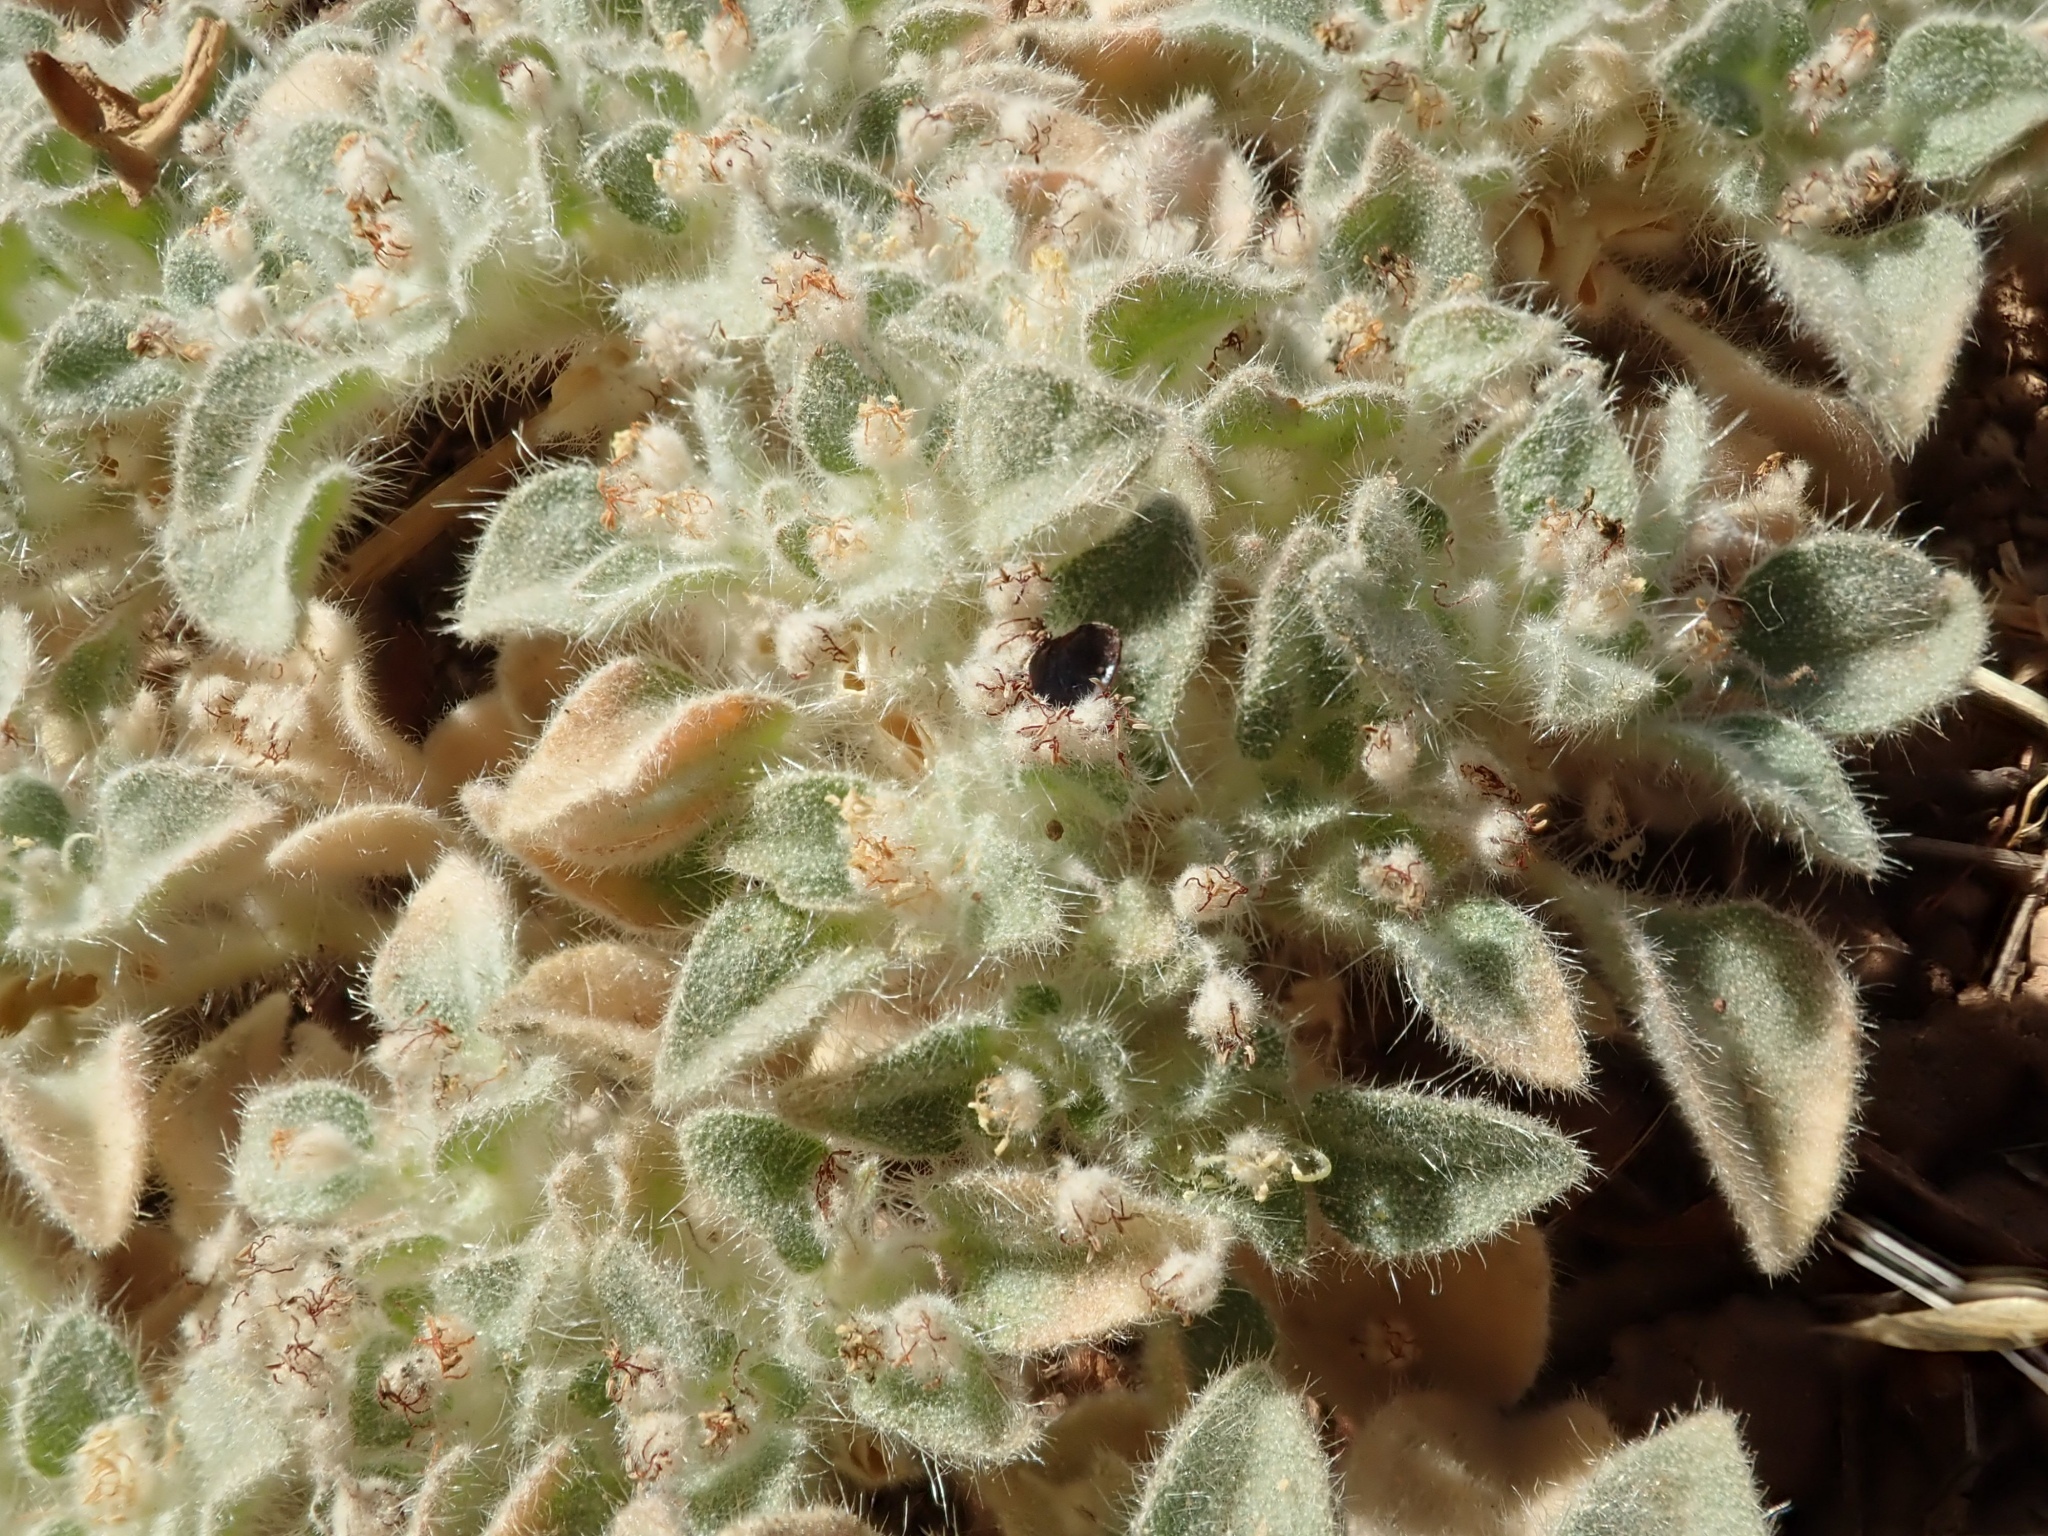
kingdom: Plantae
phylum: Tracheophyta
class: Magnoliopsida
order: Malpighiales
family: Euphorbiaceae
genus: Croton
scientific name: Croton setiger
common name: Dove weed
